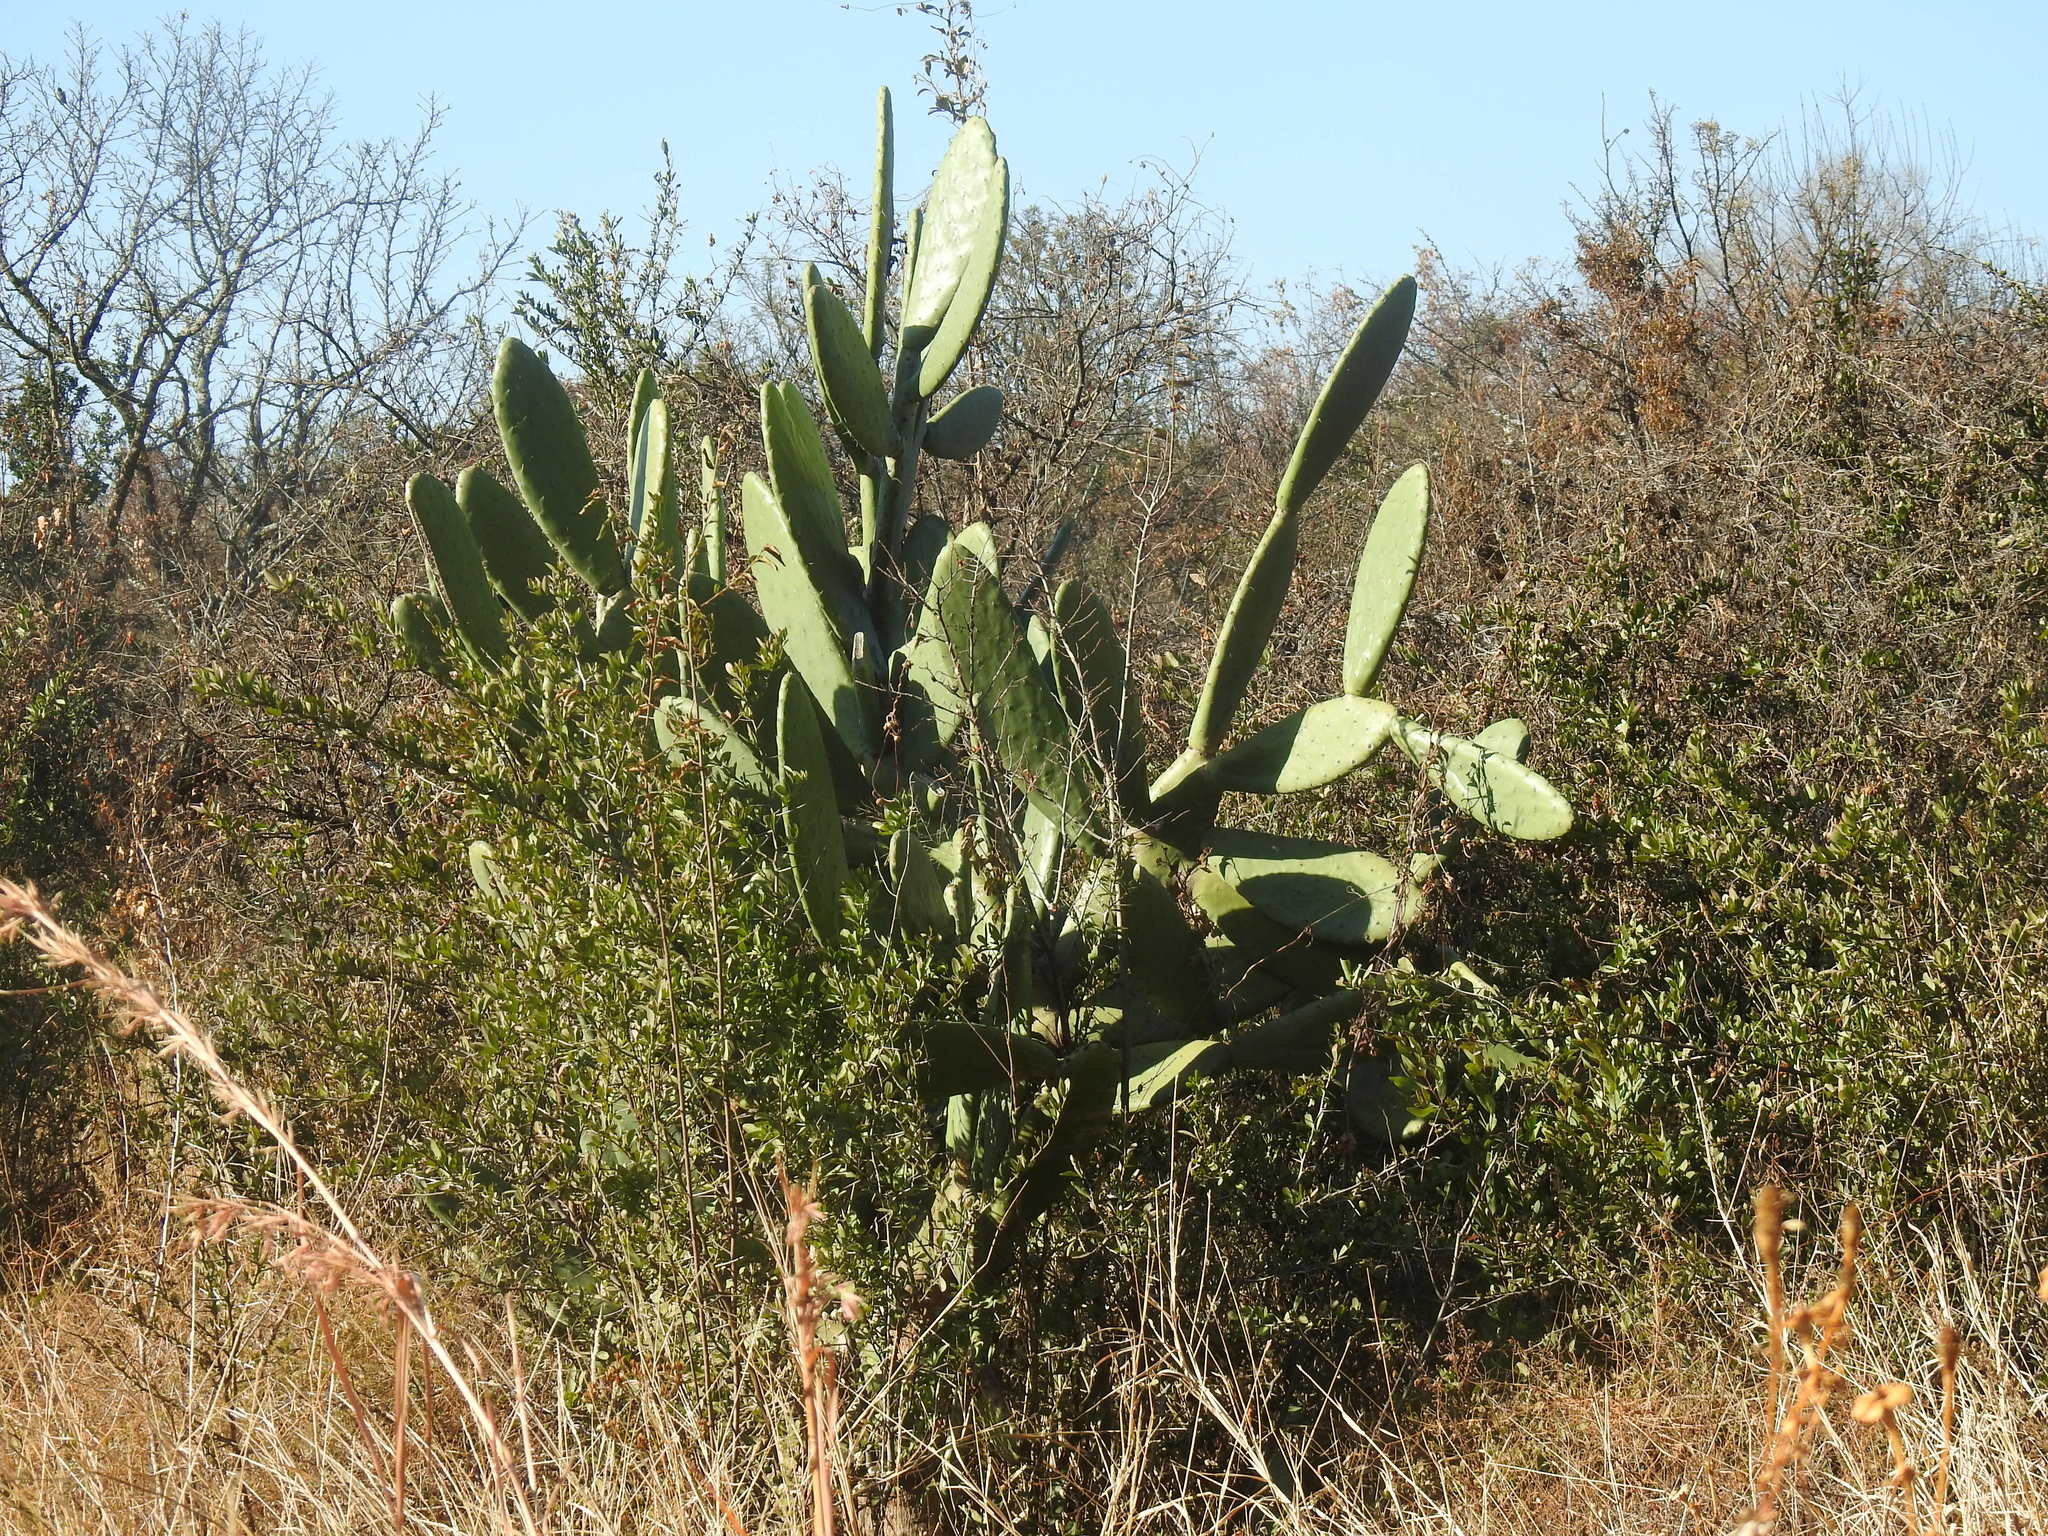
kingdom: Plantae
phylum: Tracheophyta
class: Magnoliopsida
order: Caryophyllales
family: Cactaceae
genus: Opuntia
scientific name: Opuntia ficus-indica
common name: Barbary fig
